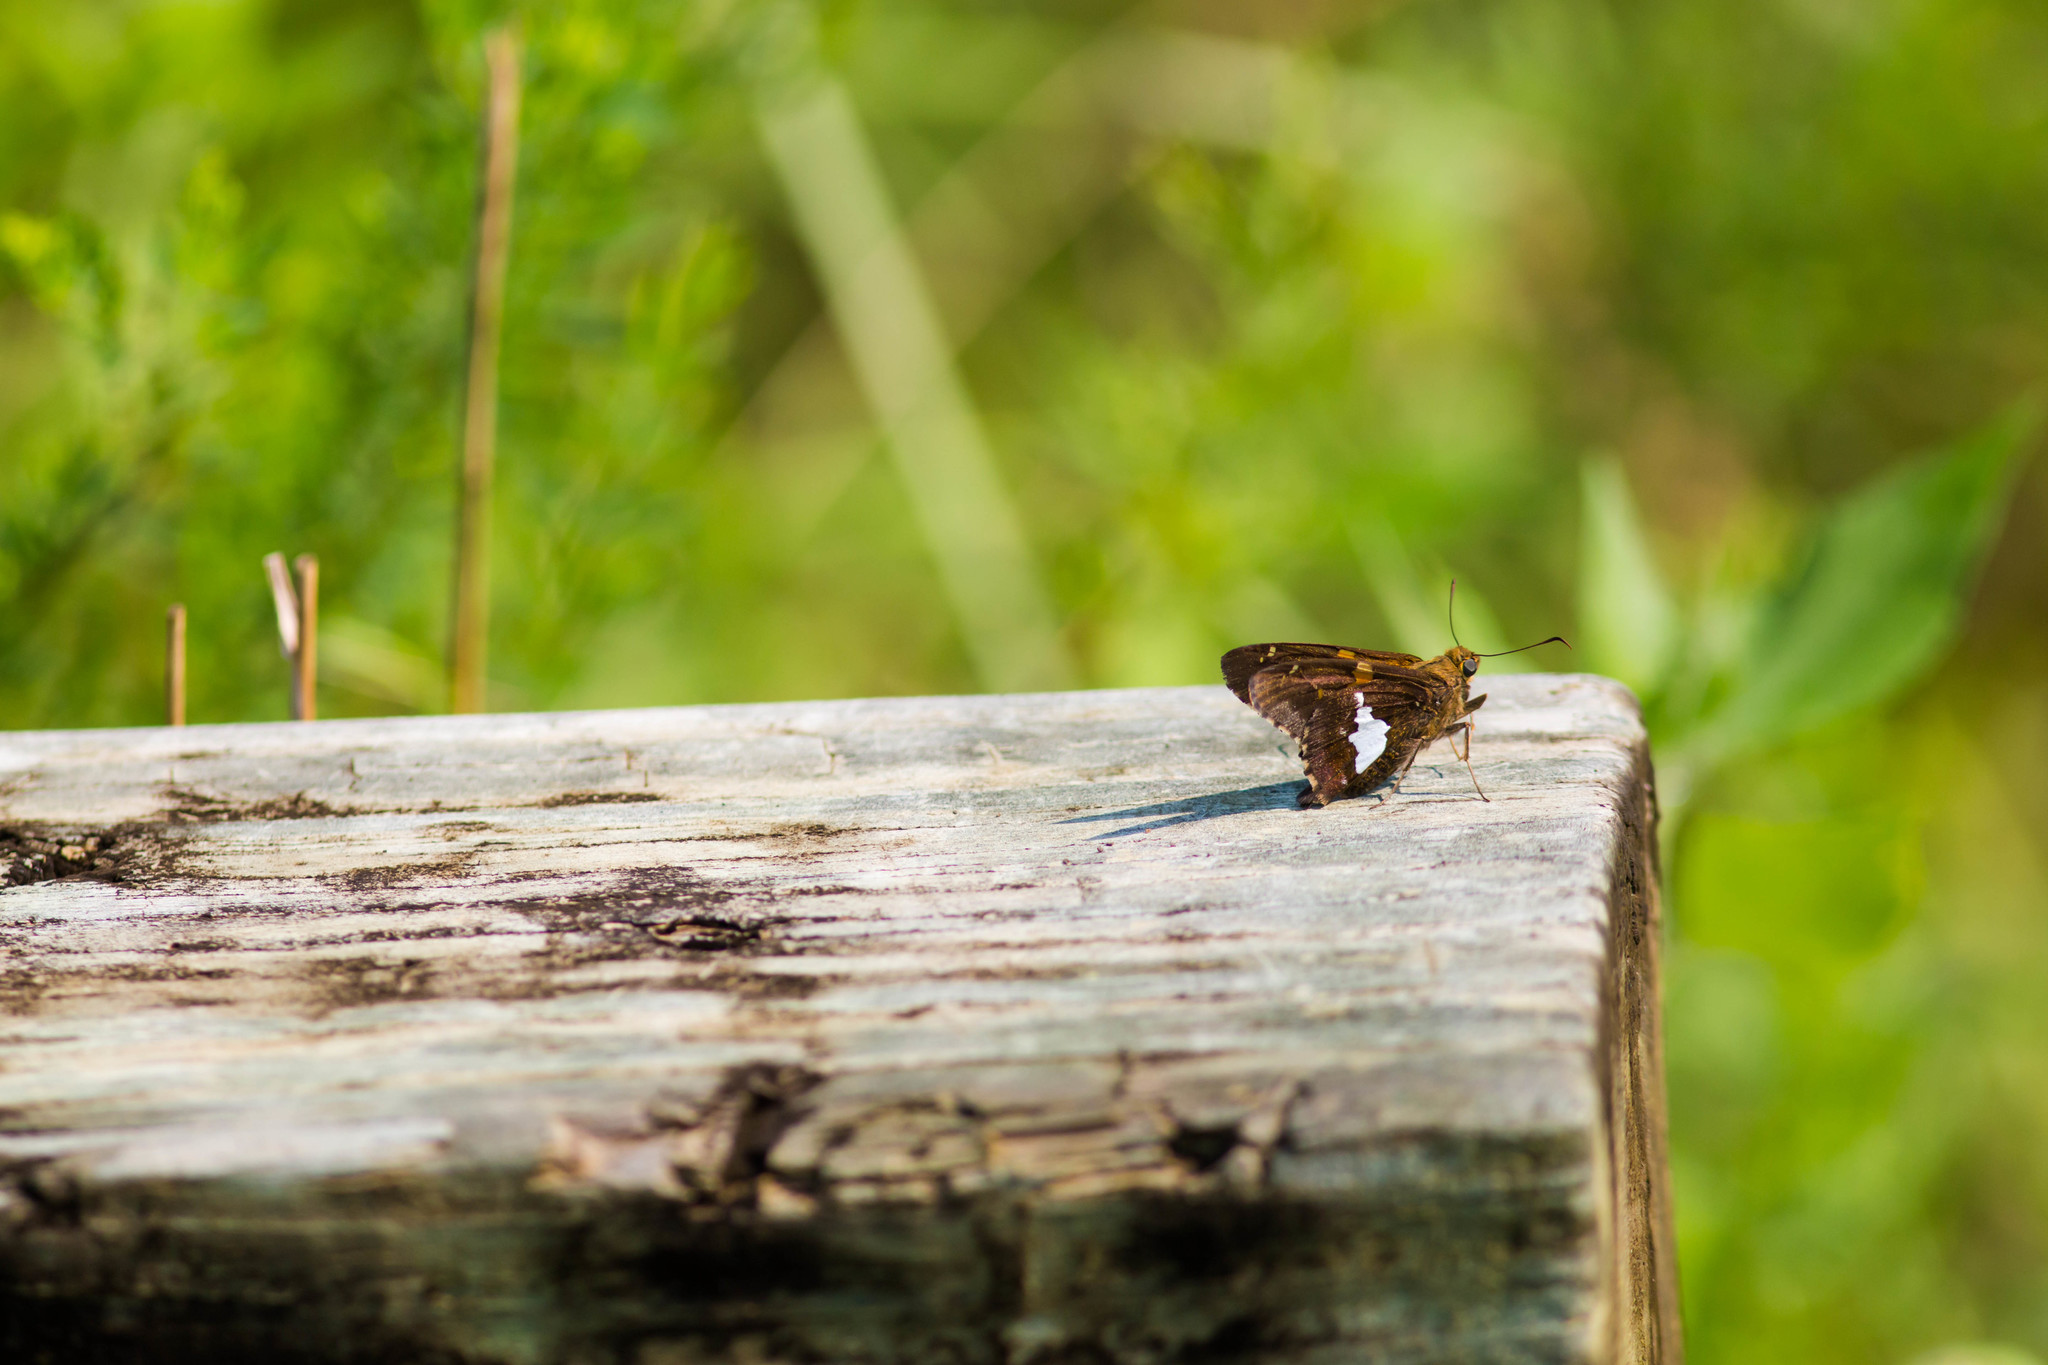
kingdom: Animalia
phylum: Arthropoda
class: Insecta
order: Lepidoptera
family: Hesperiidae
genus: Epargyreus
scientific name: Epargyreus clarus
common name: Silver-spotted skipper
